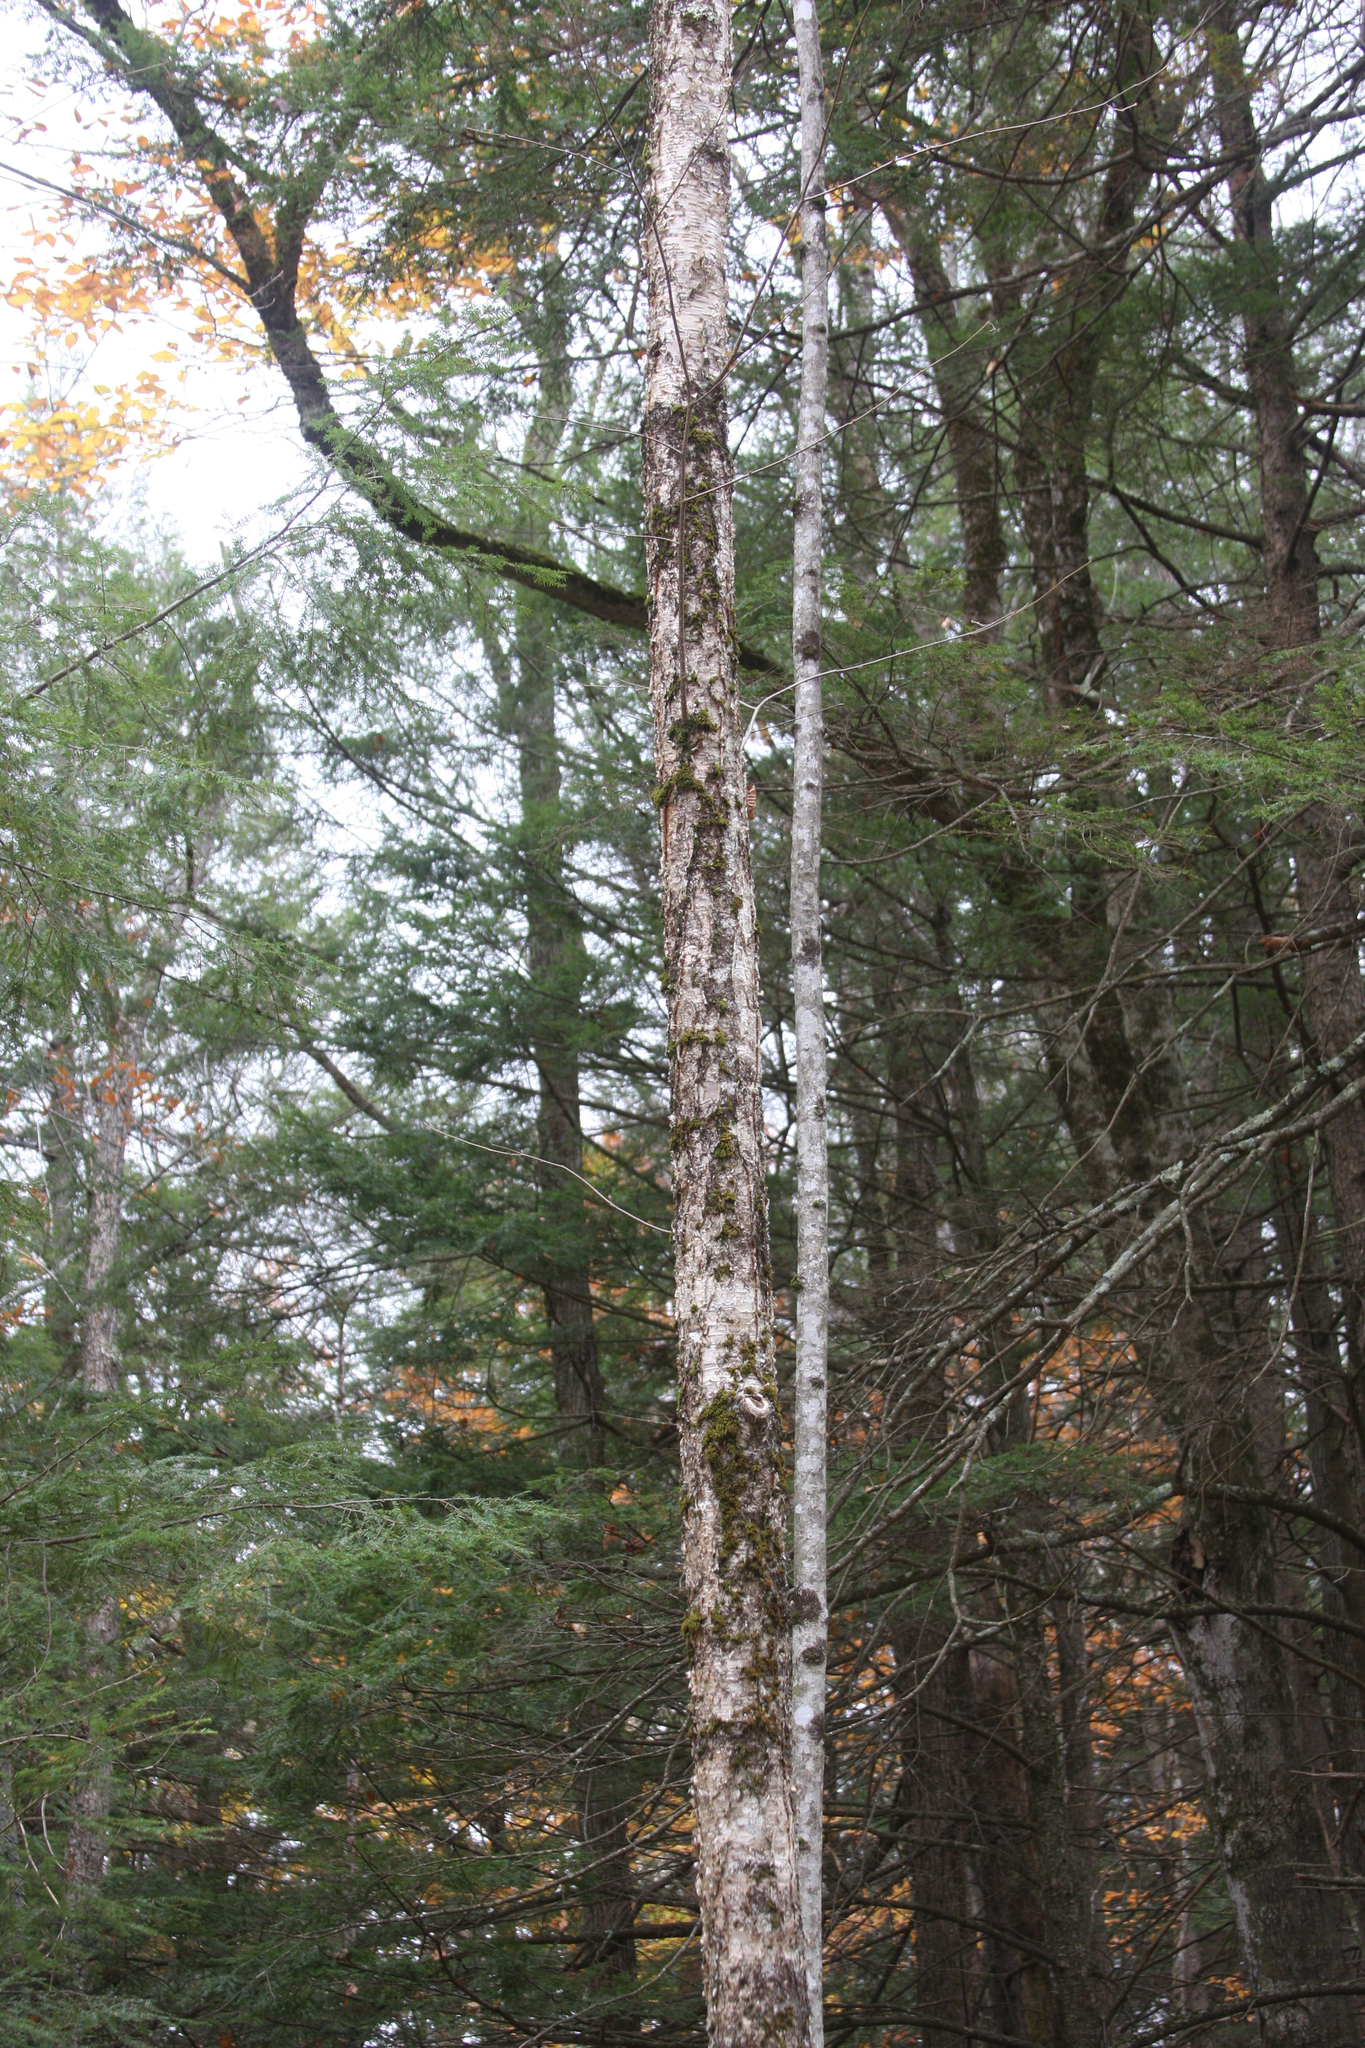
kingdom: Plantae
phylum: Tracheophyta
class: Magnoliopsida
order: Fagales
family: Betulaceae
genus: Betula
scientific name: Betula alleghaniensis
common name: Yellow birch
